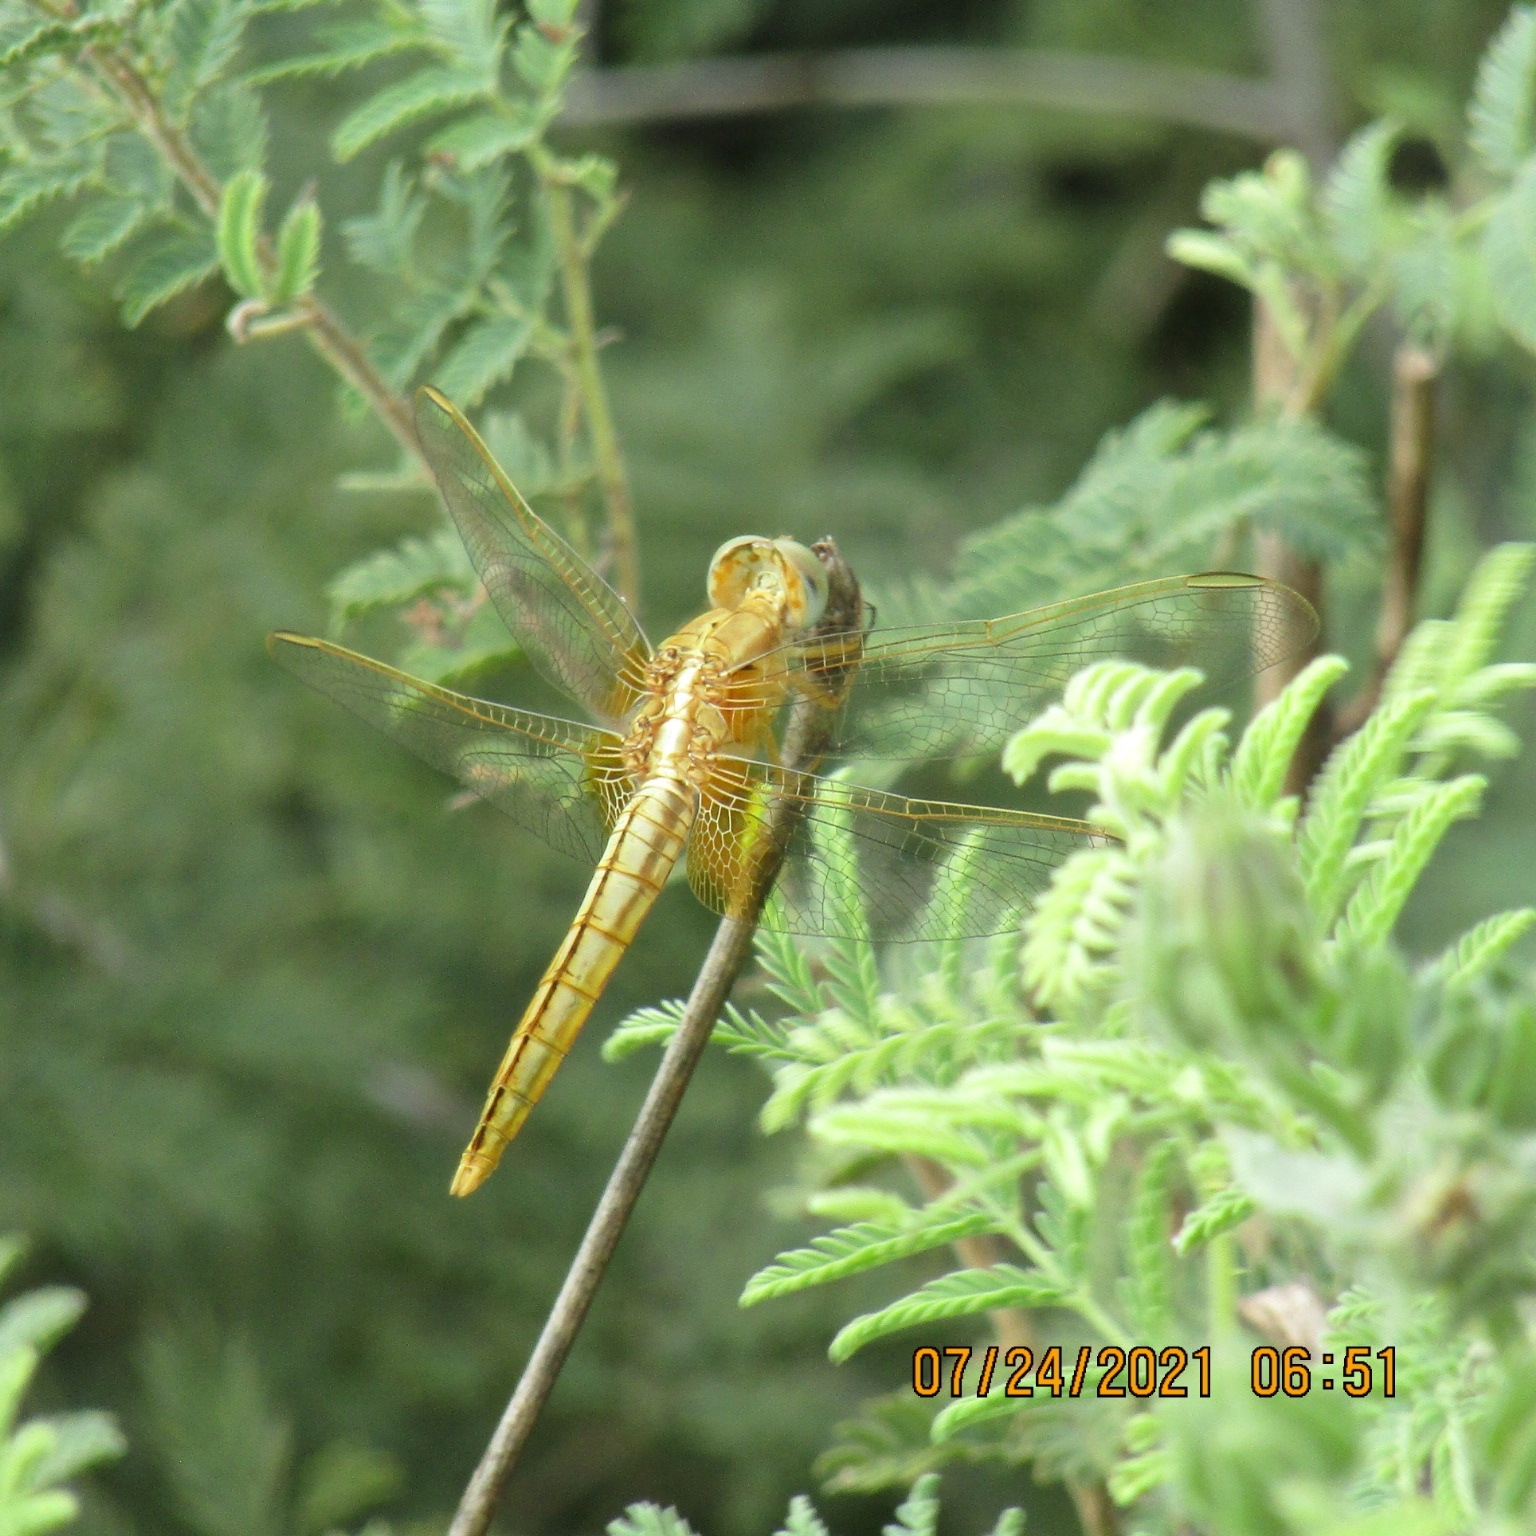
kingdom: Animalia
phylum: Arthropoda
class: Insecta
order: Odonata
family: Libellulidae
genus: Crocothemis
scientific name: Crocothemis erythraea
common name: Scarlet dragonfly
